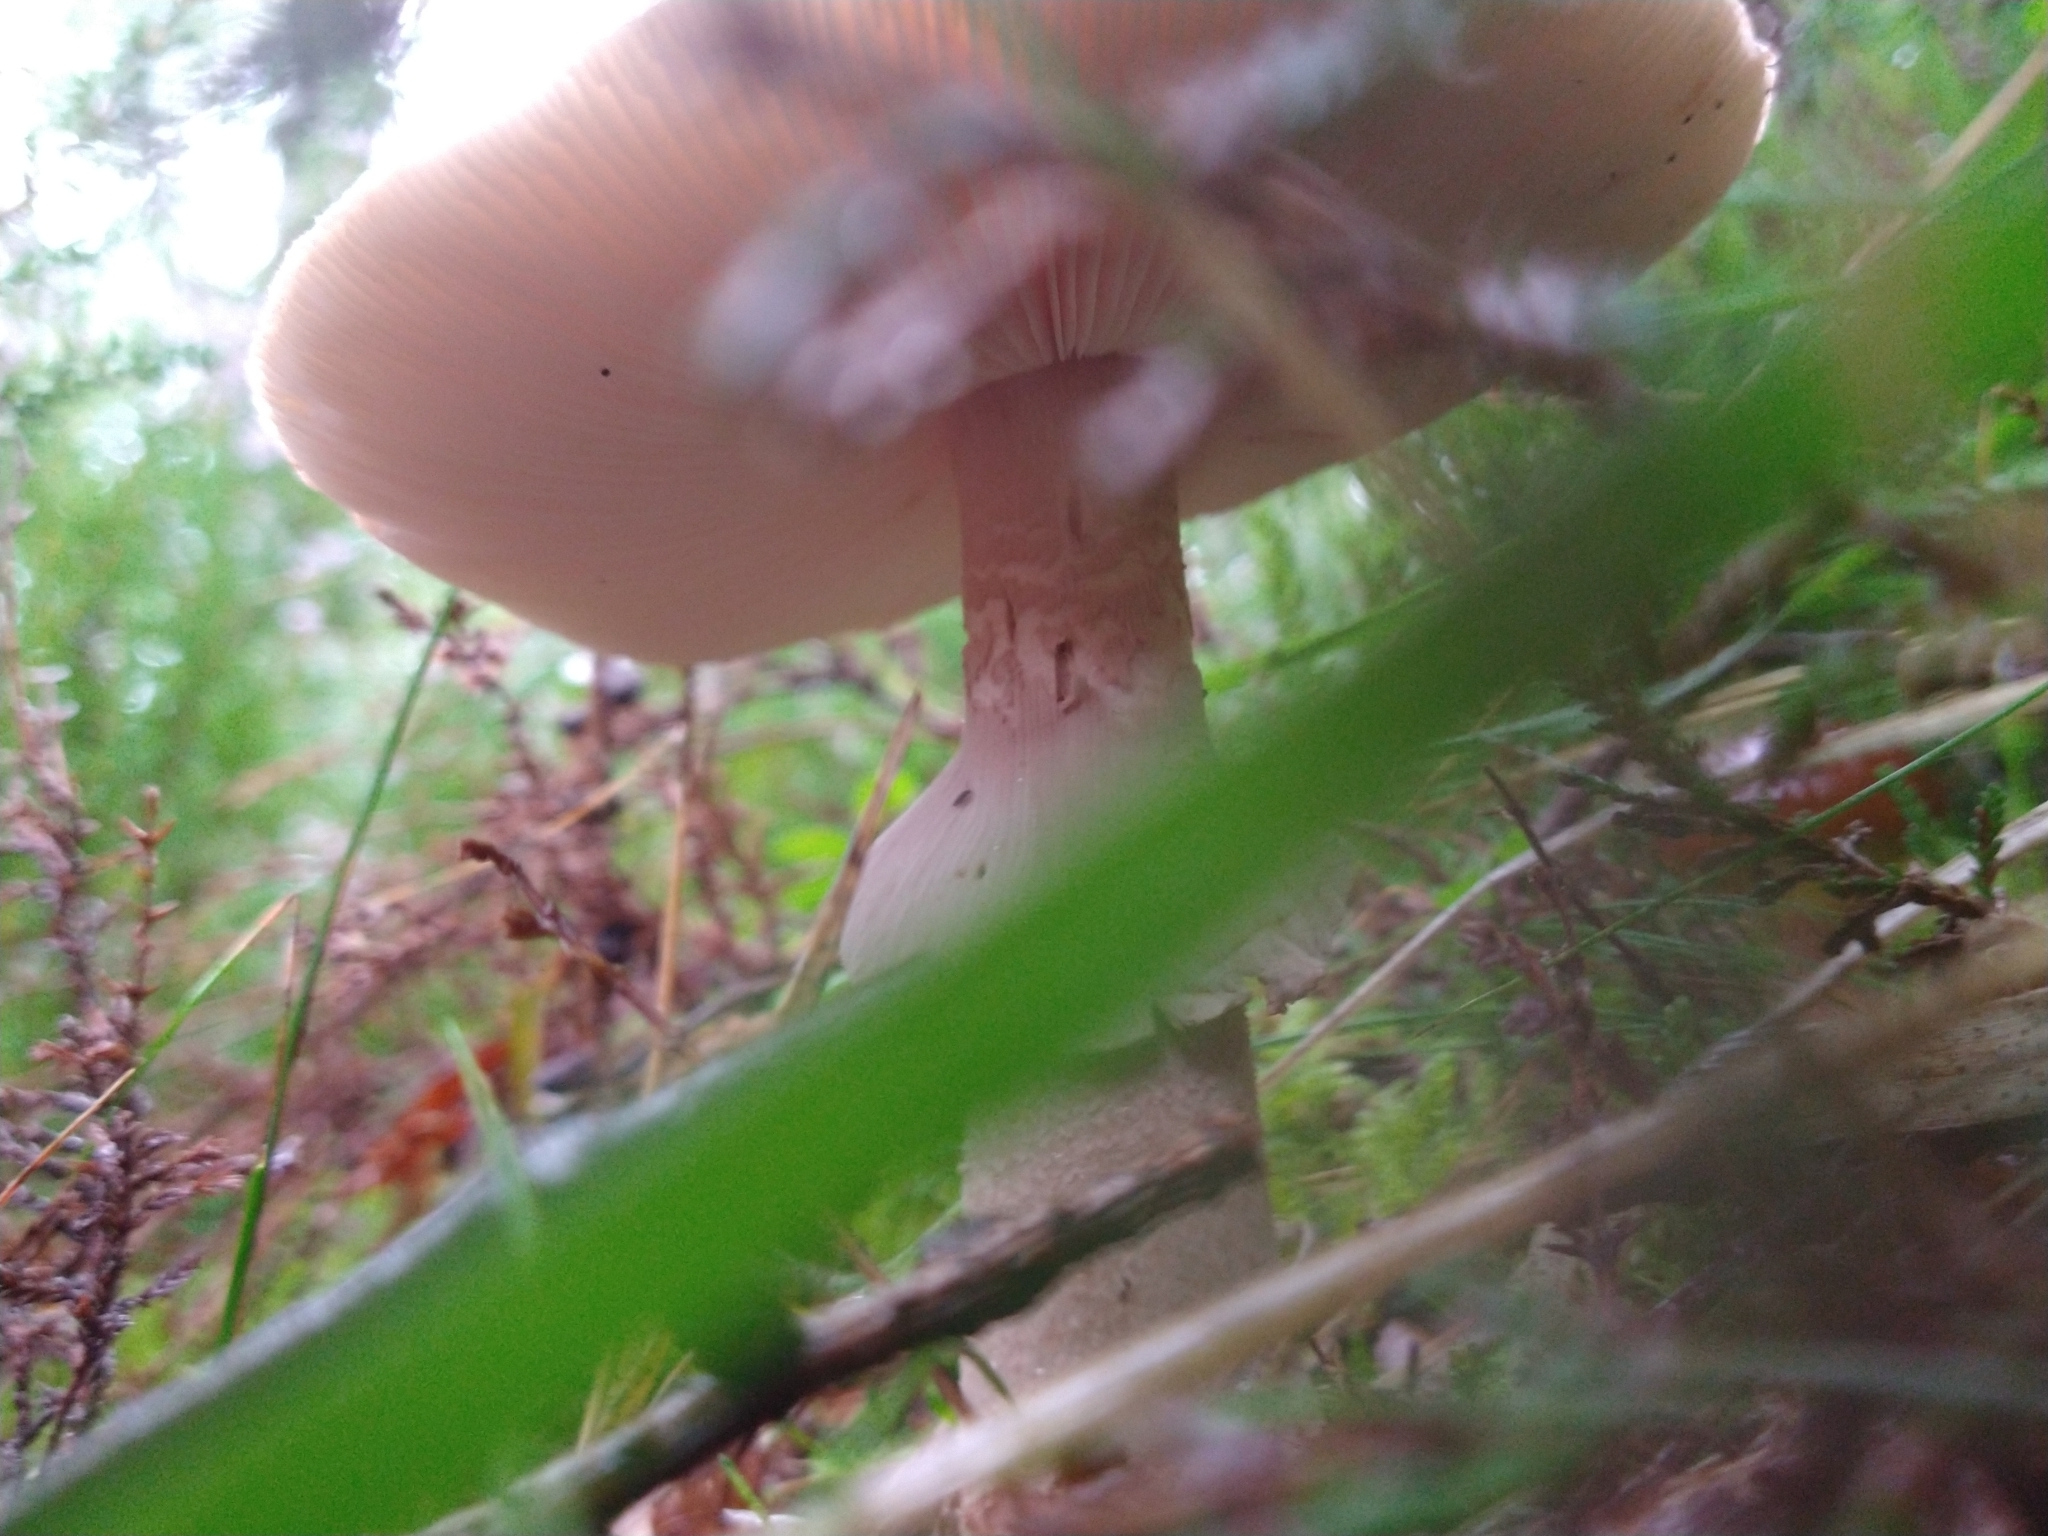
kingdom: Fungi
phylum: Basidiomycota
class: Agaricomycetes
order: Agaricales
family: Amanitaceae
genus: Amanita
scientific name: Amanita rubescens
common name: Blusher
